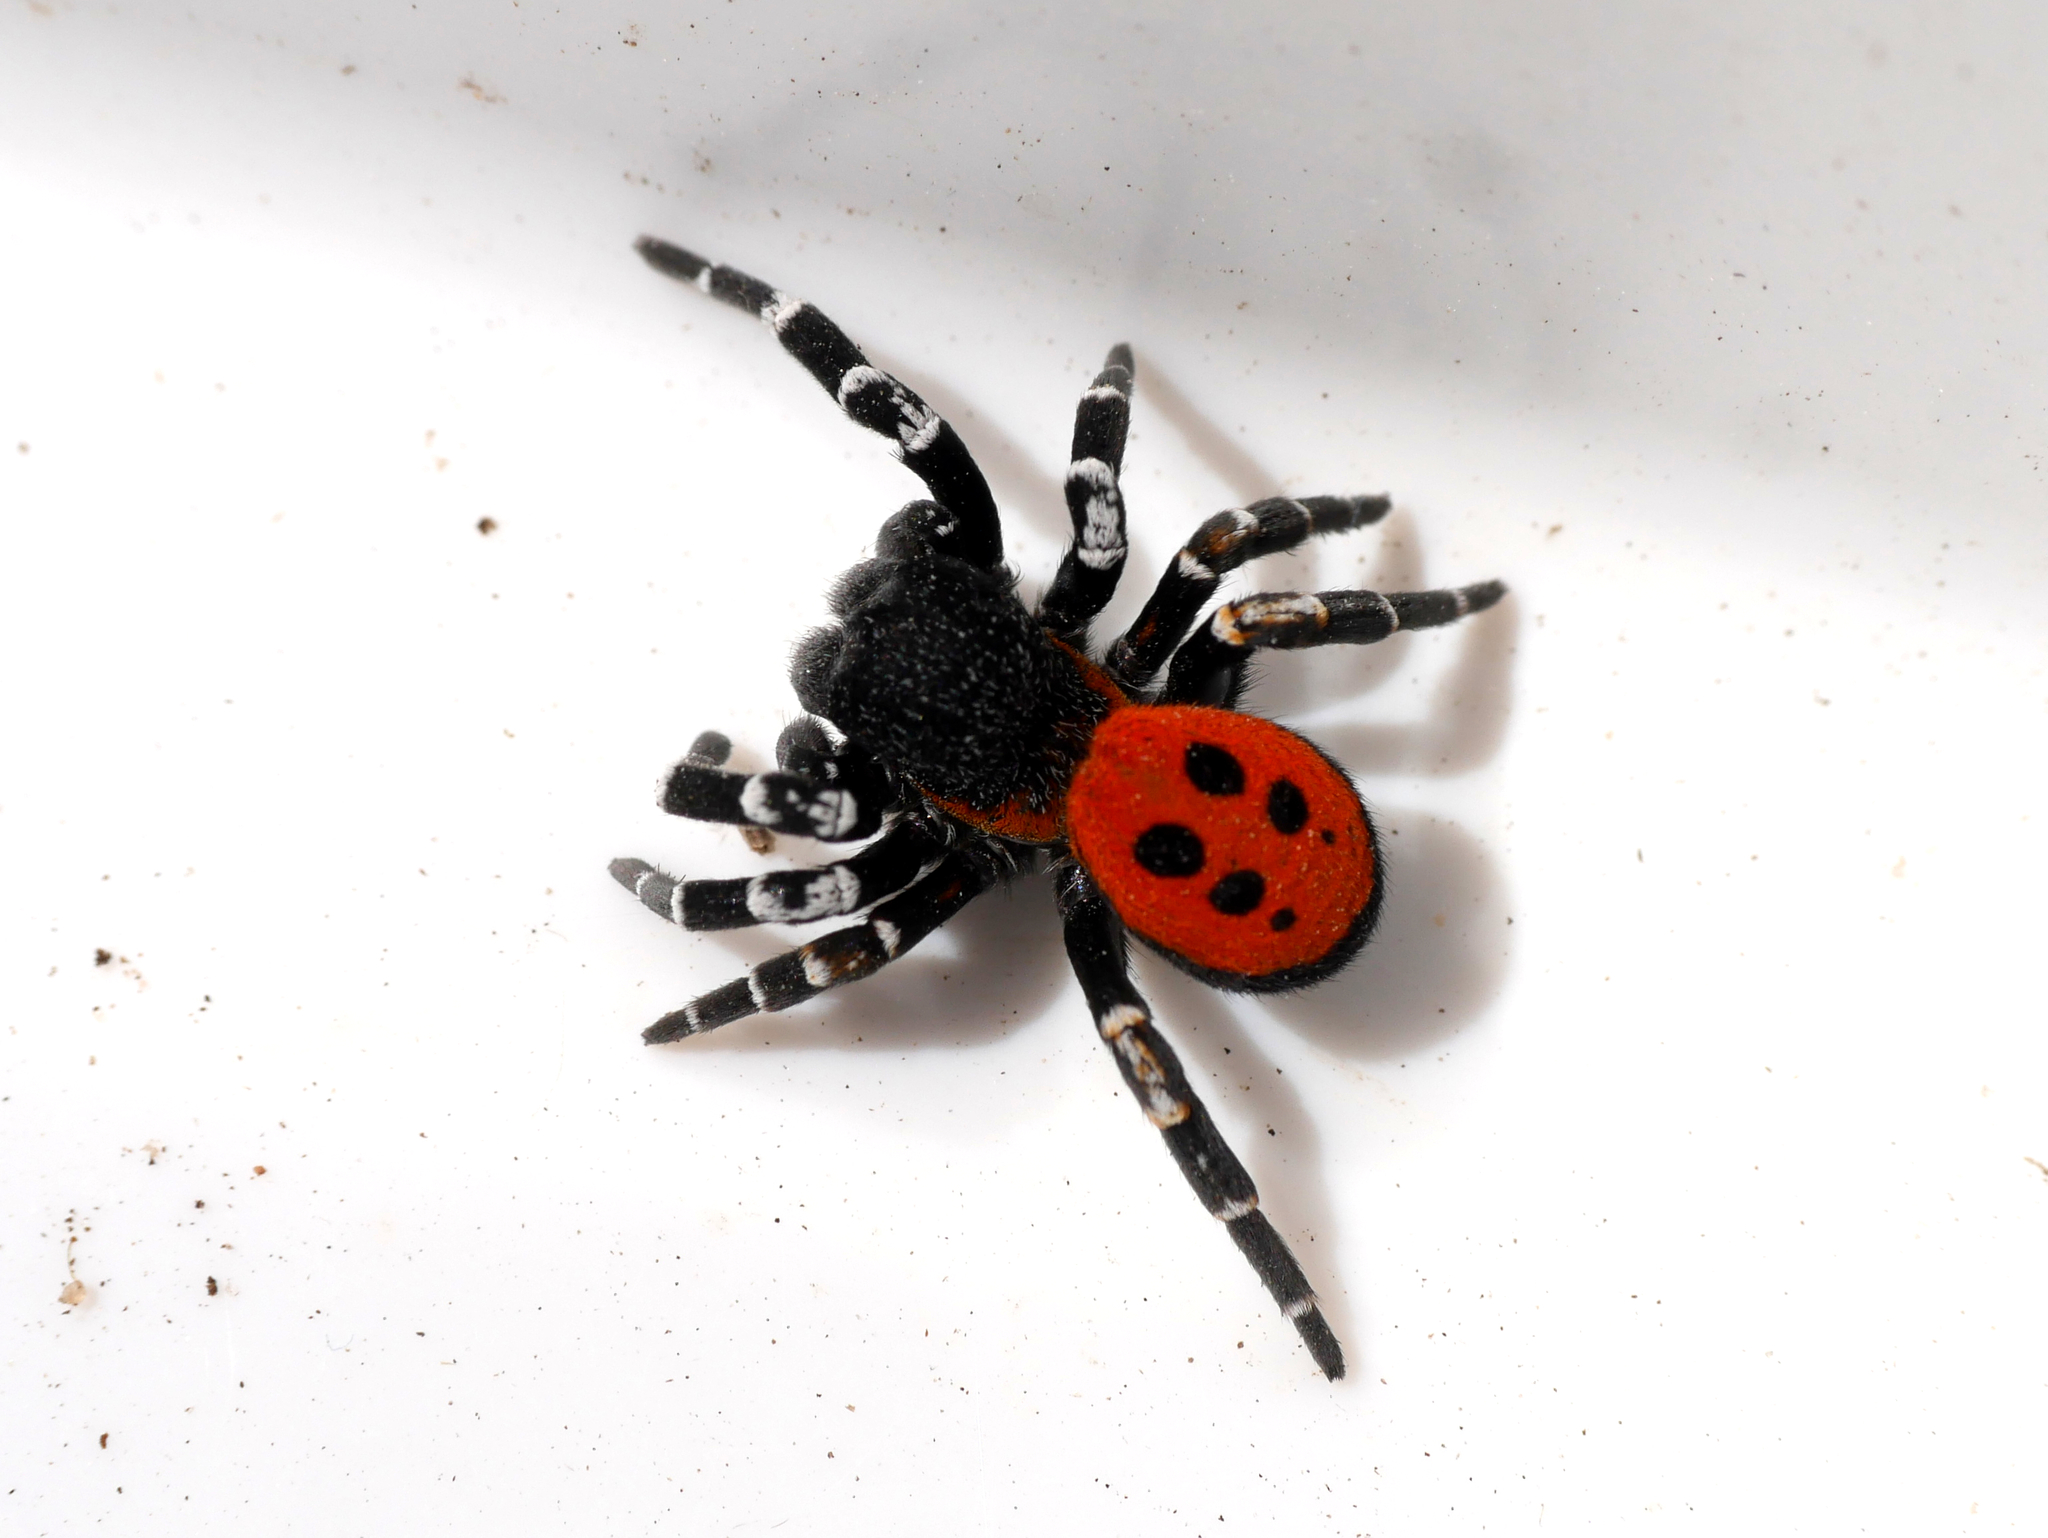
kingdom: Animalia
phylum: Arthropoda
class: Arachnida
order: Araneae
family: Eresidae
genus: Eresus
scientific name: Eresus sandaliatus
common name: Ladybird spider
